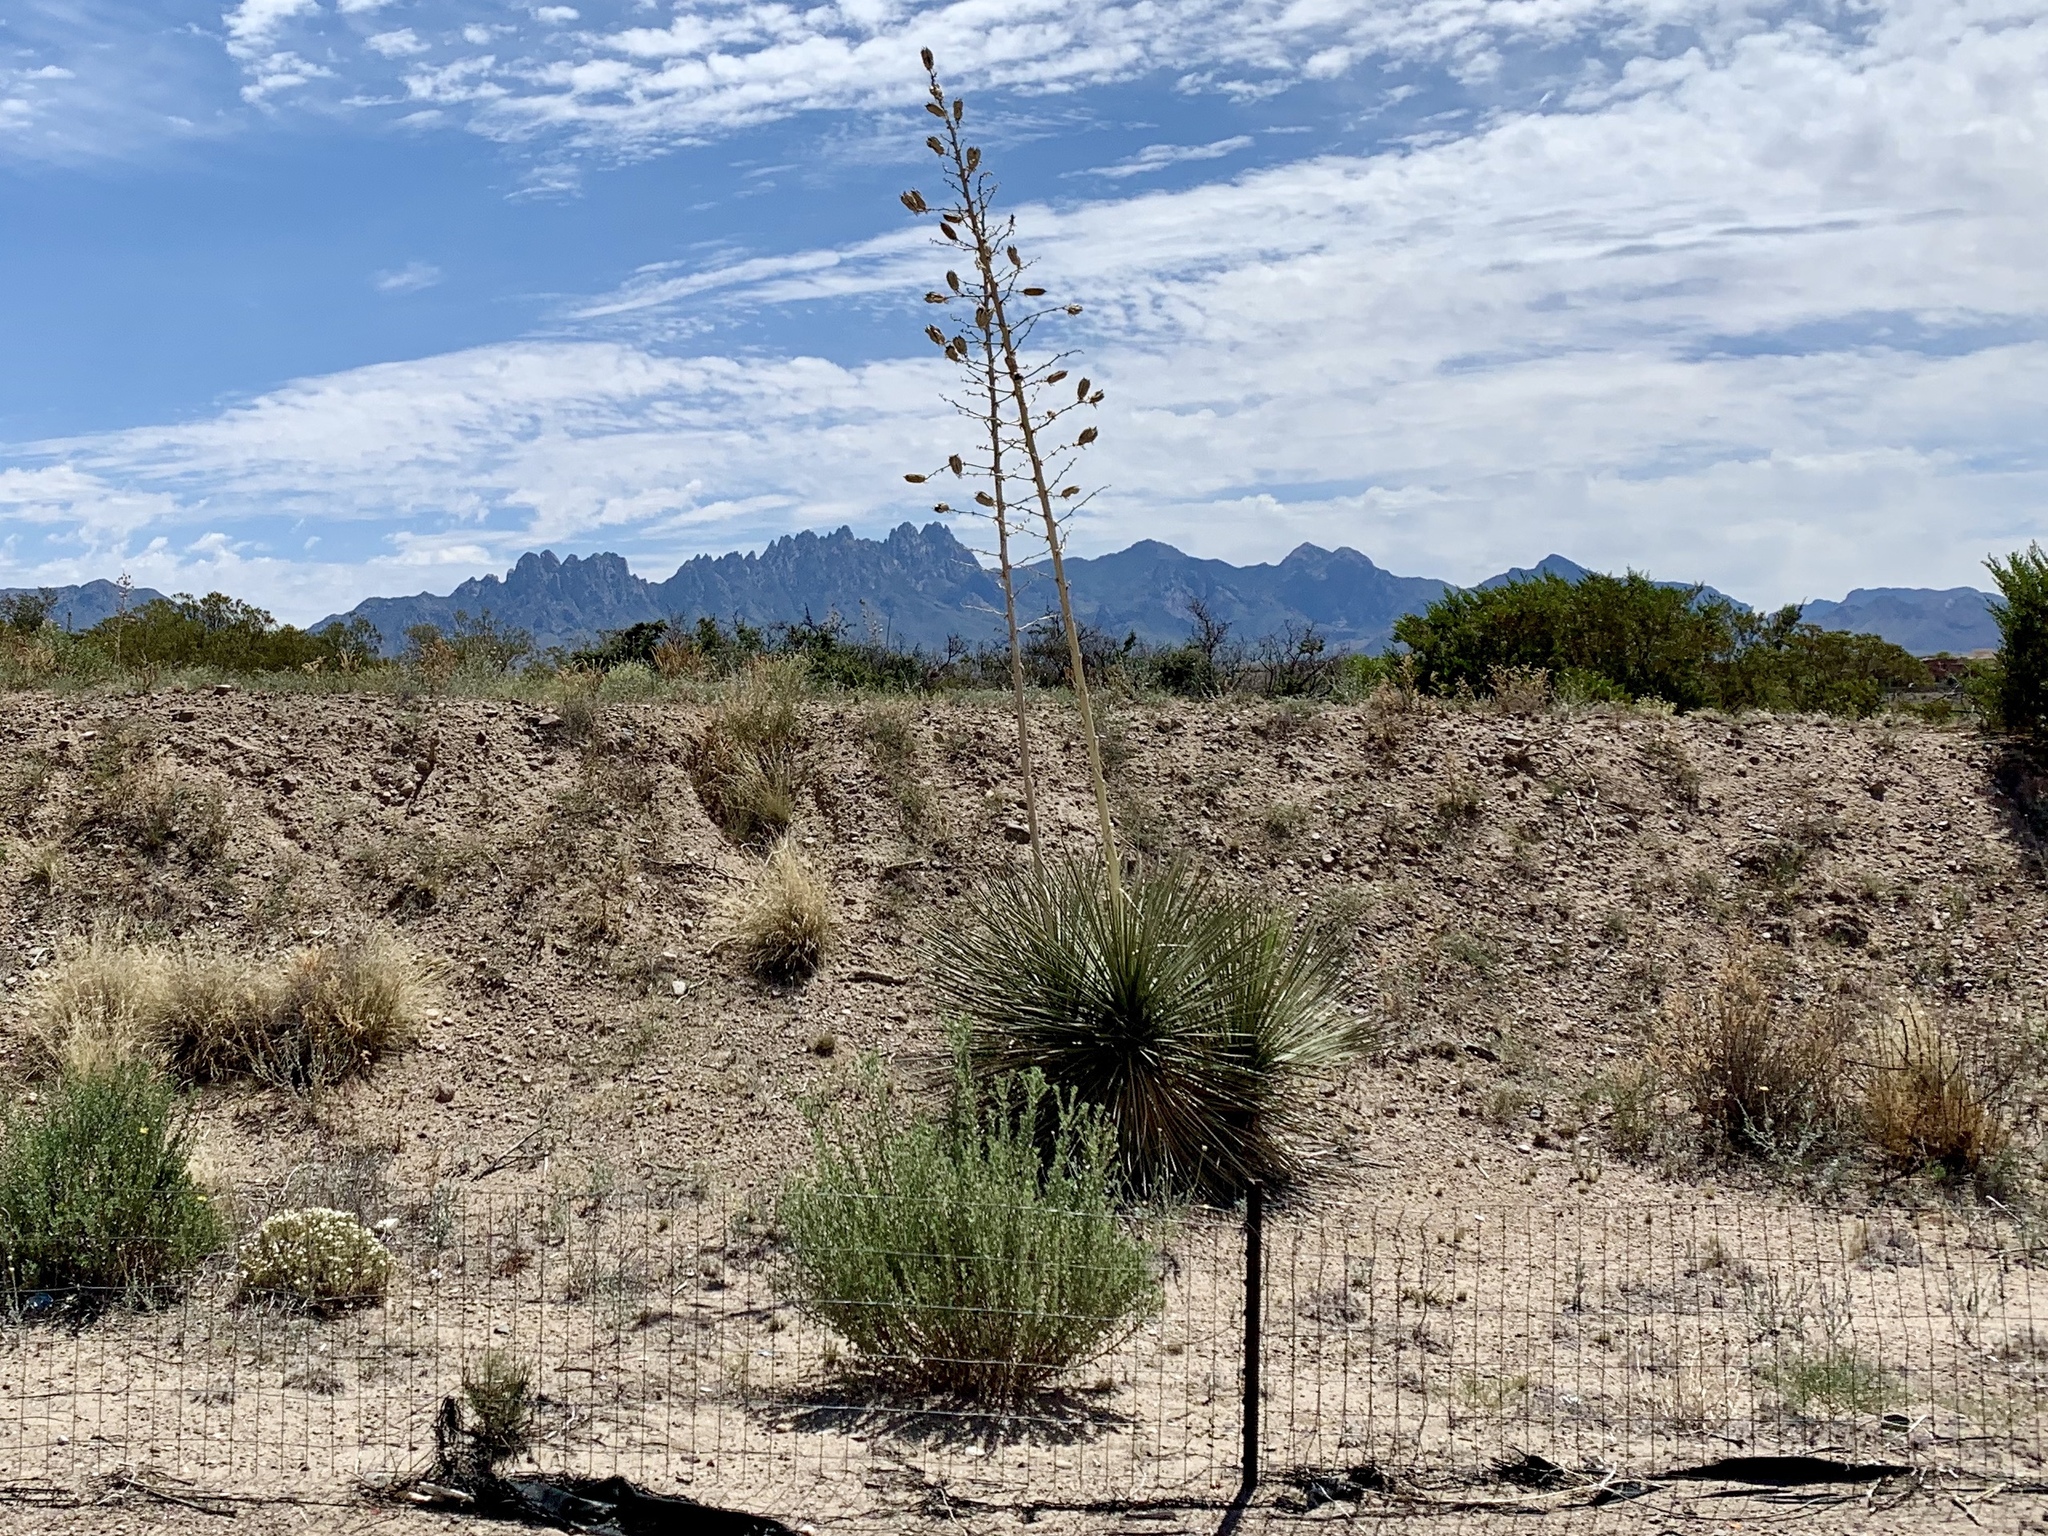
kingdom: Plantae
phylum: Tracheophyta
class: Liliopsida
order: Asparagales
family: Asparagaceae
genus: Yucca
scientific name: Yucca elata
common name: Palmella
